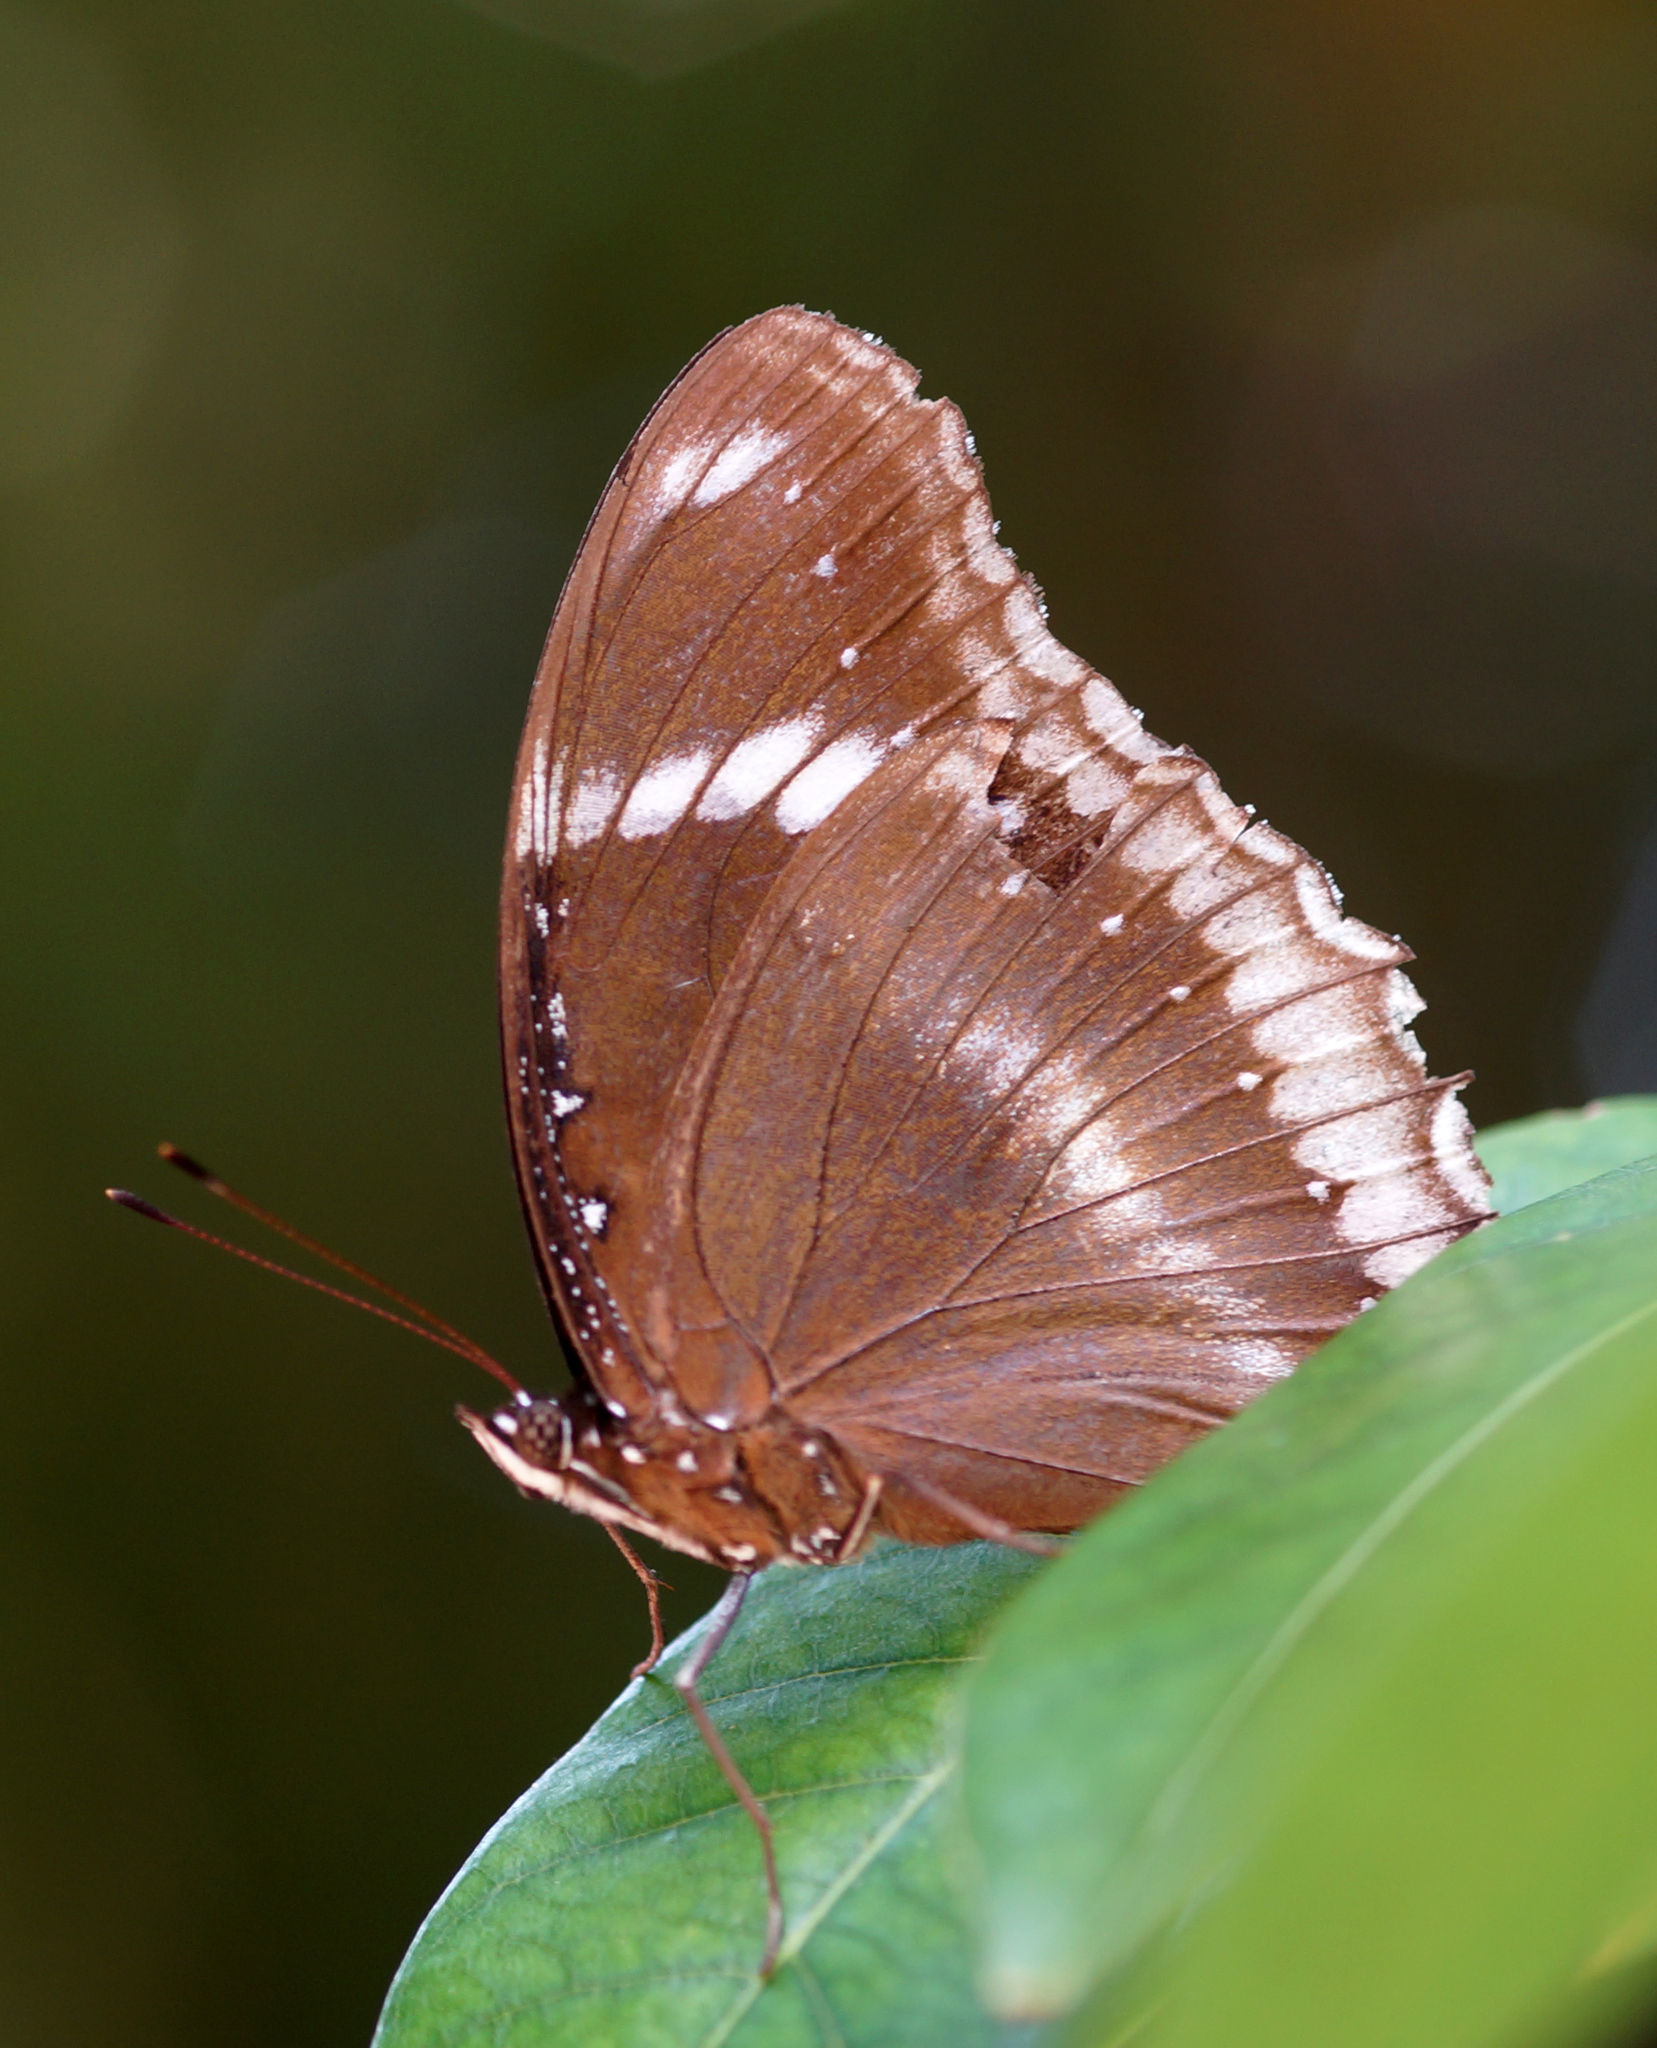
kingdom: Animalia
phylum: Arthropoda
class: Insecta
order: Lepidoptera
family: Nymphalidae
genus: Hypolimnas
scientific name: Hypolimnas bolina
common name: Great eggfly
